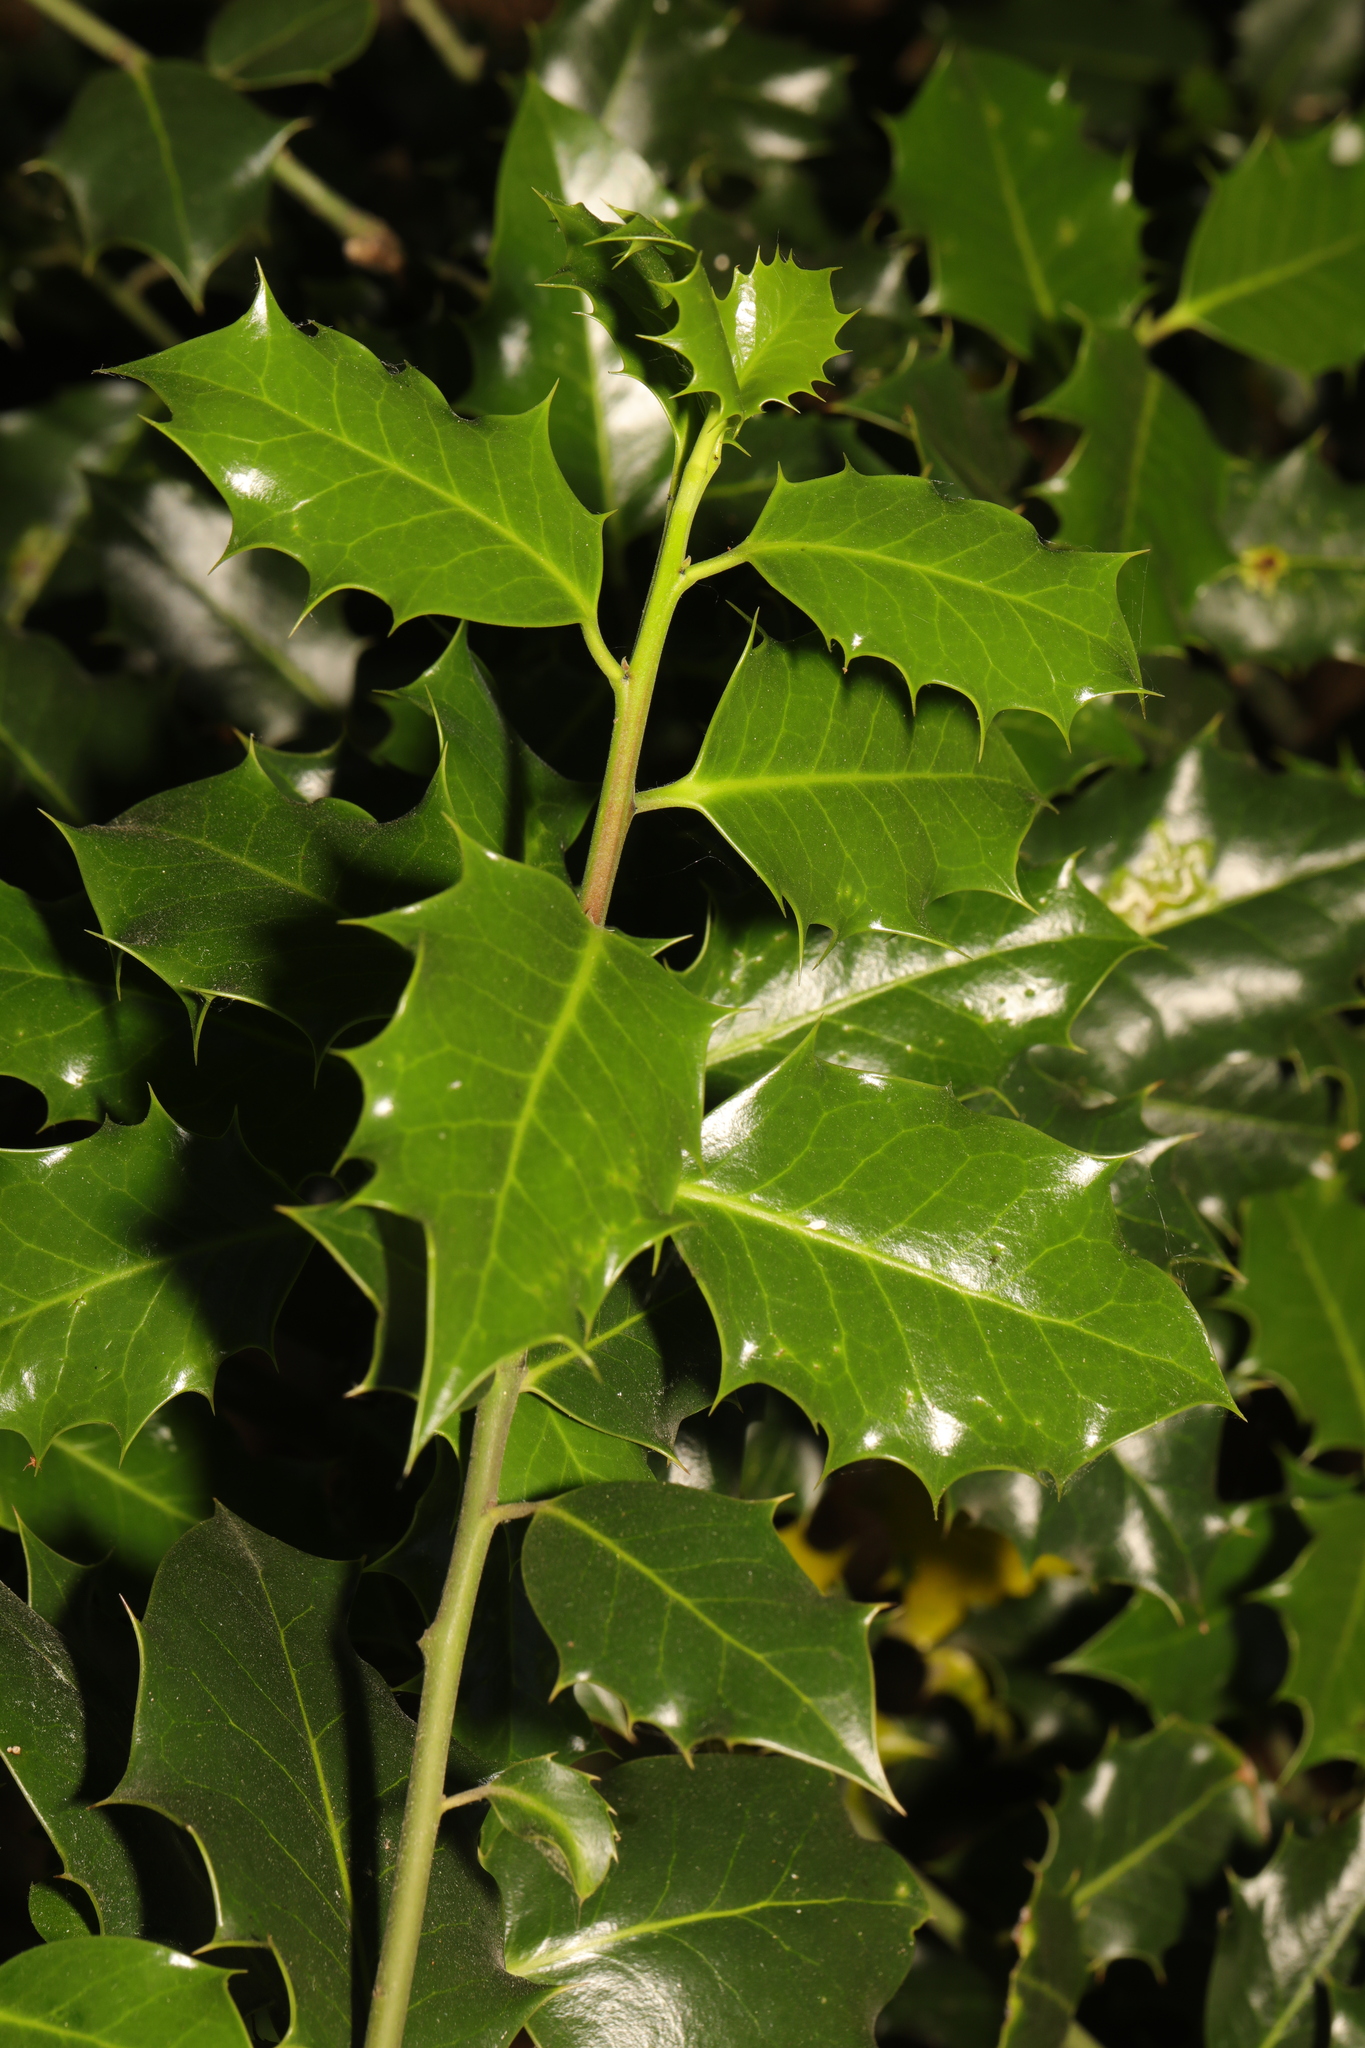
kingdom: Plantae
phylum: Tracheophyta
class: Magnoliopsida
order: Aquifoliales
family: Aquifoliaceae
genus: Ilex
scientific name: Ilex aquifolium
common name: English holly
